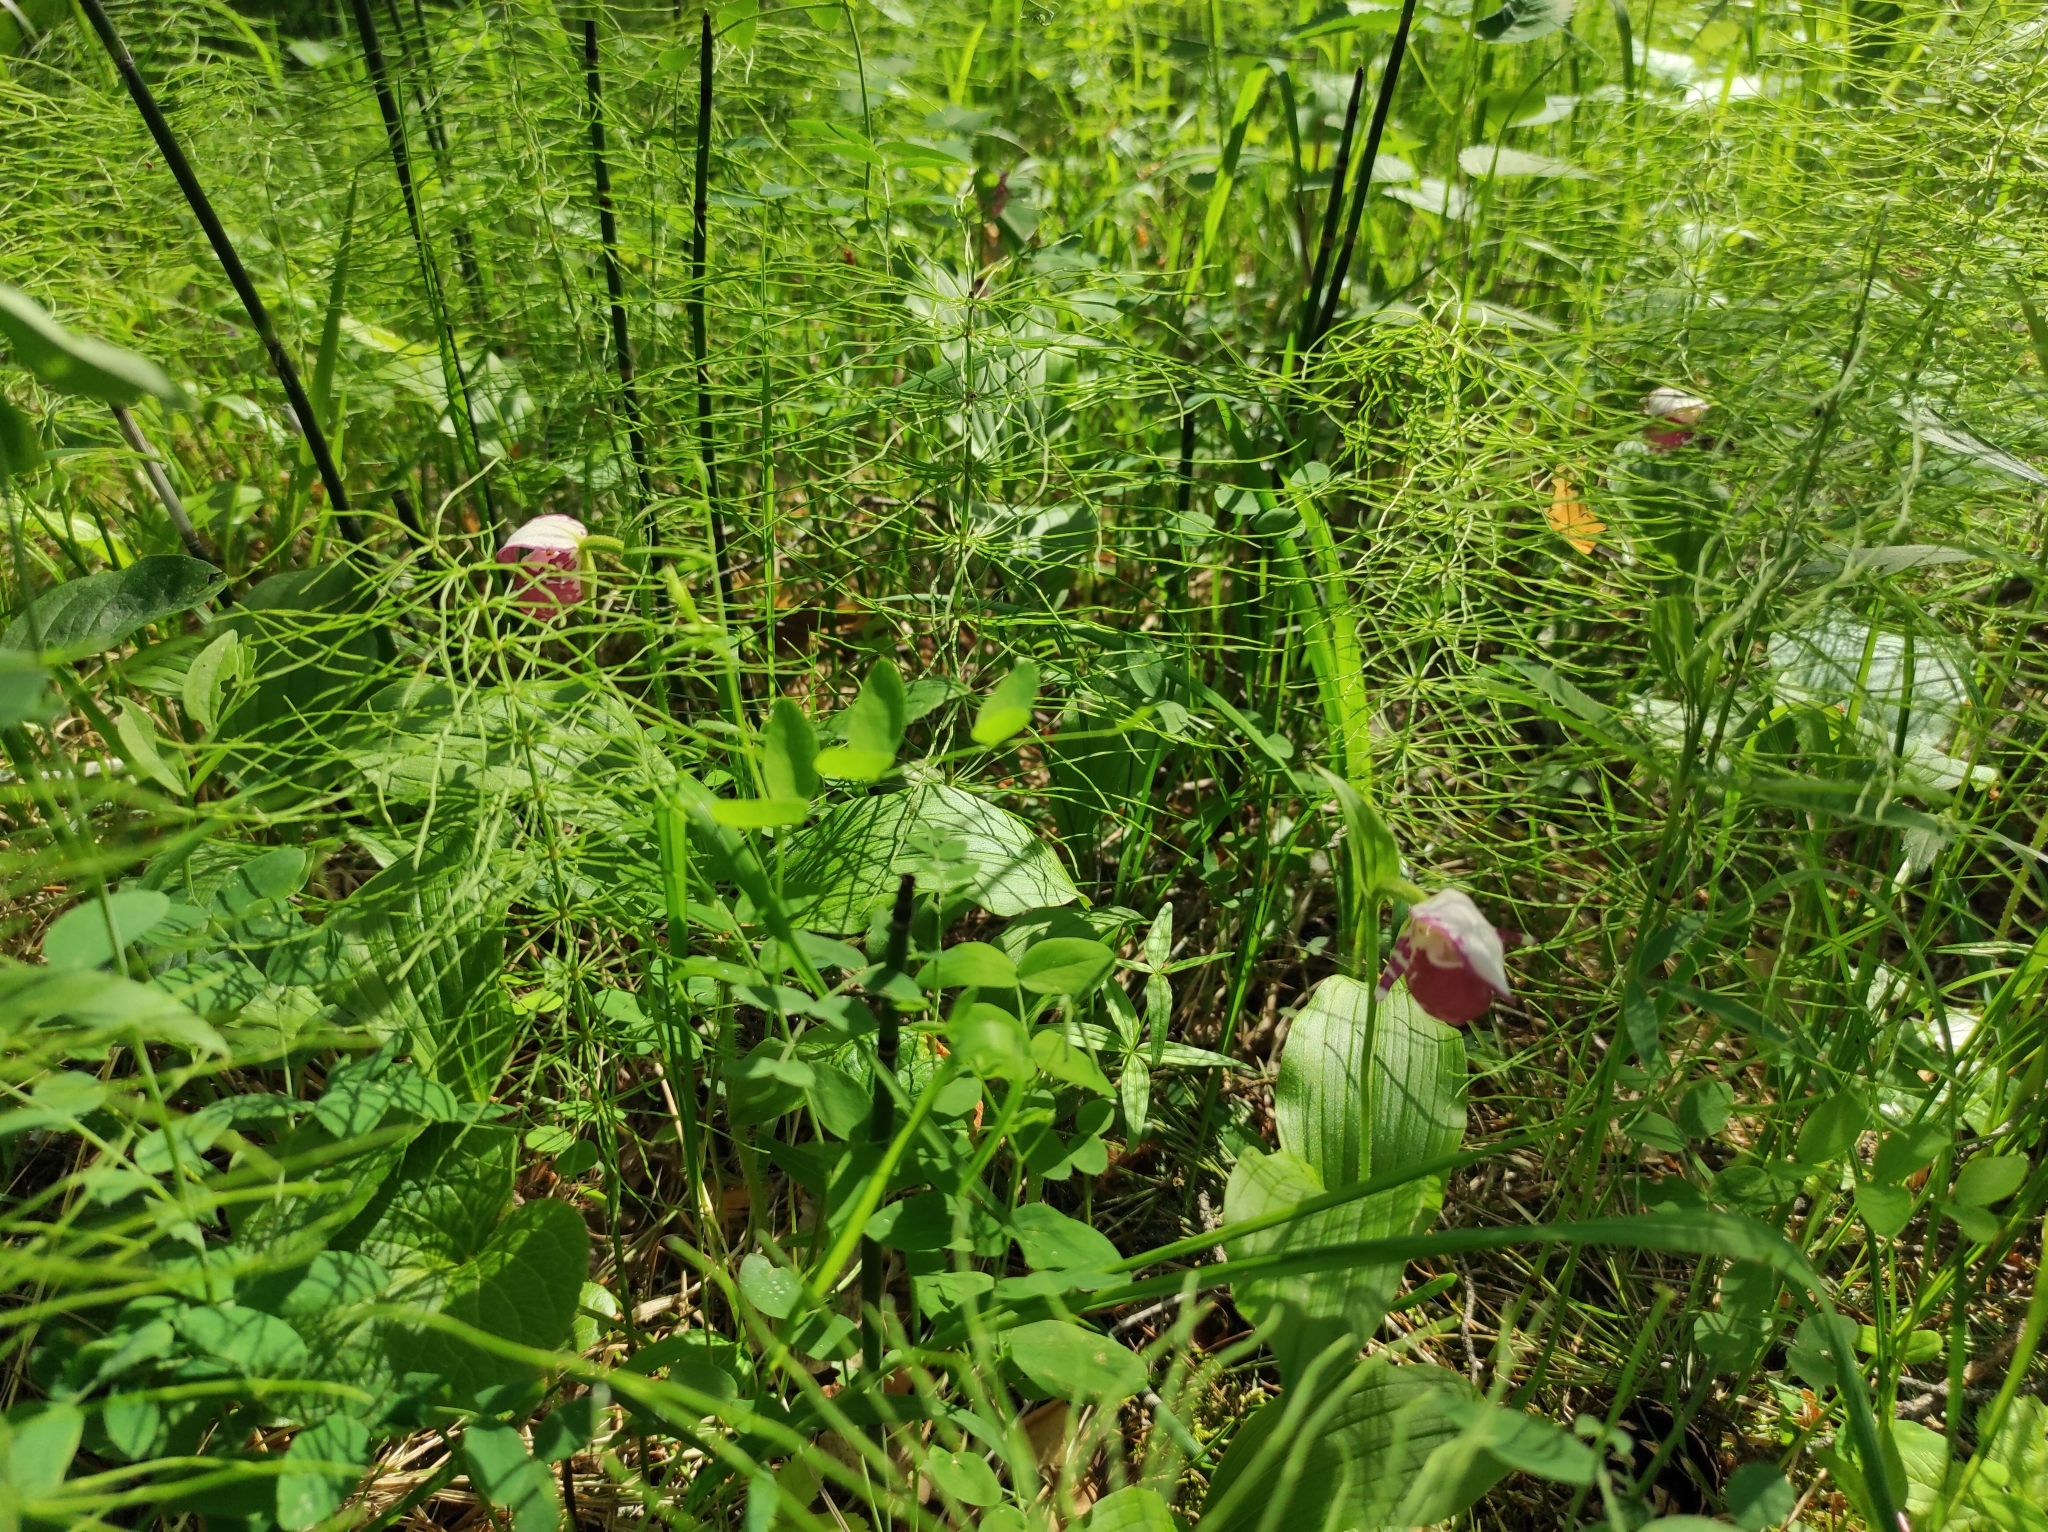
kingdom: Plantae
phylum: Tracheophyta
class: Liliopsida
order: Asparagales
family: Orchidaceae
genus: Cypripedium
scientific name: Cypripedium guttatum
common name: Pink lady slipper
